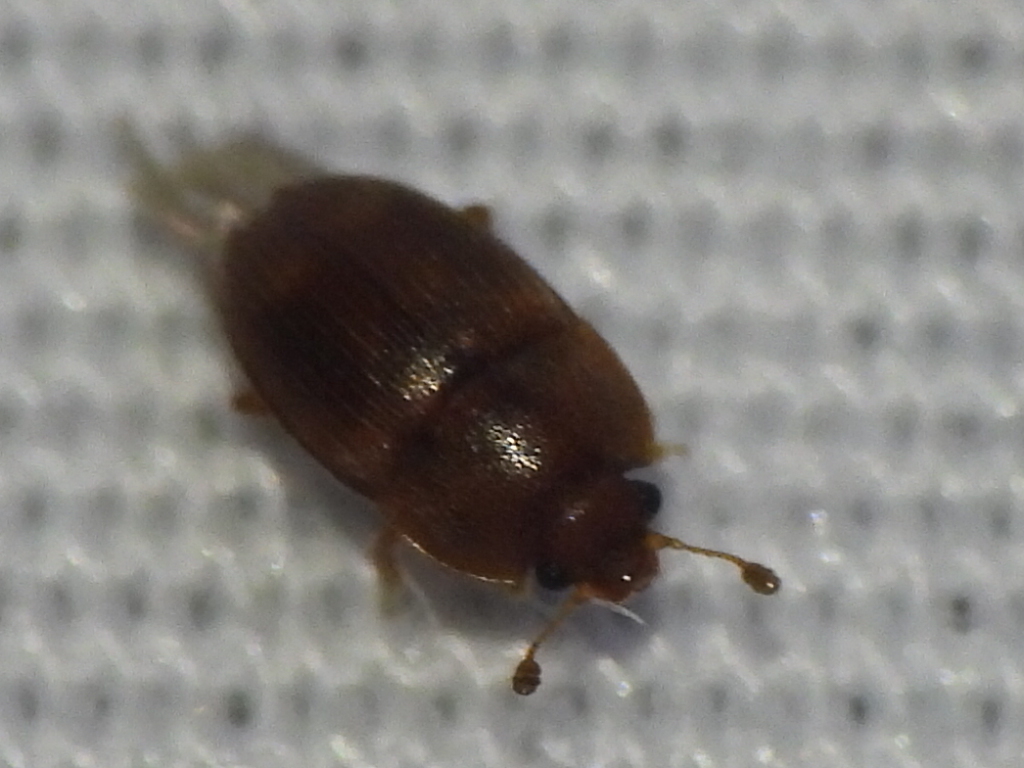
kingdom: Animalia
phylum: Arthropoda
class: Insecta
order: Coleoptera
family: Nitidulidae
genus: Stelidota
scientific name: Stelidota coenosa
